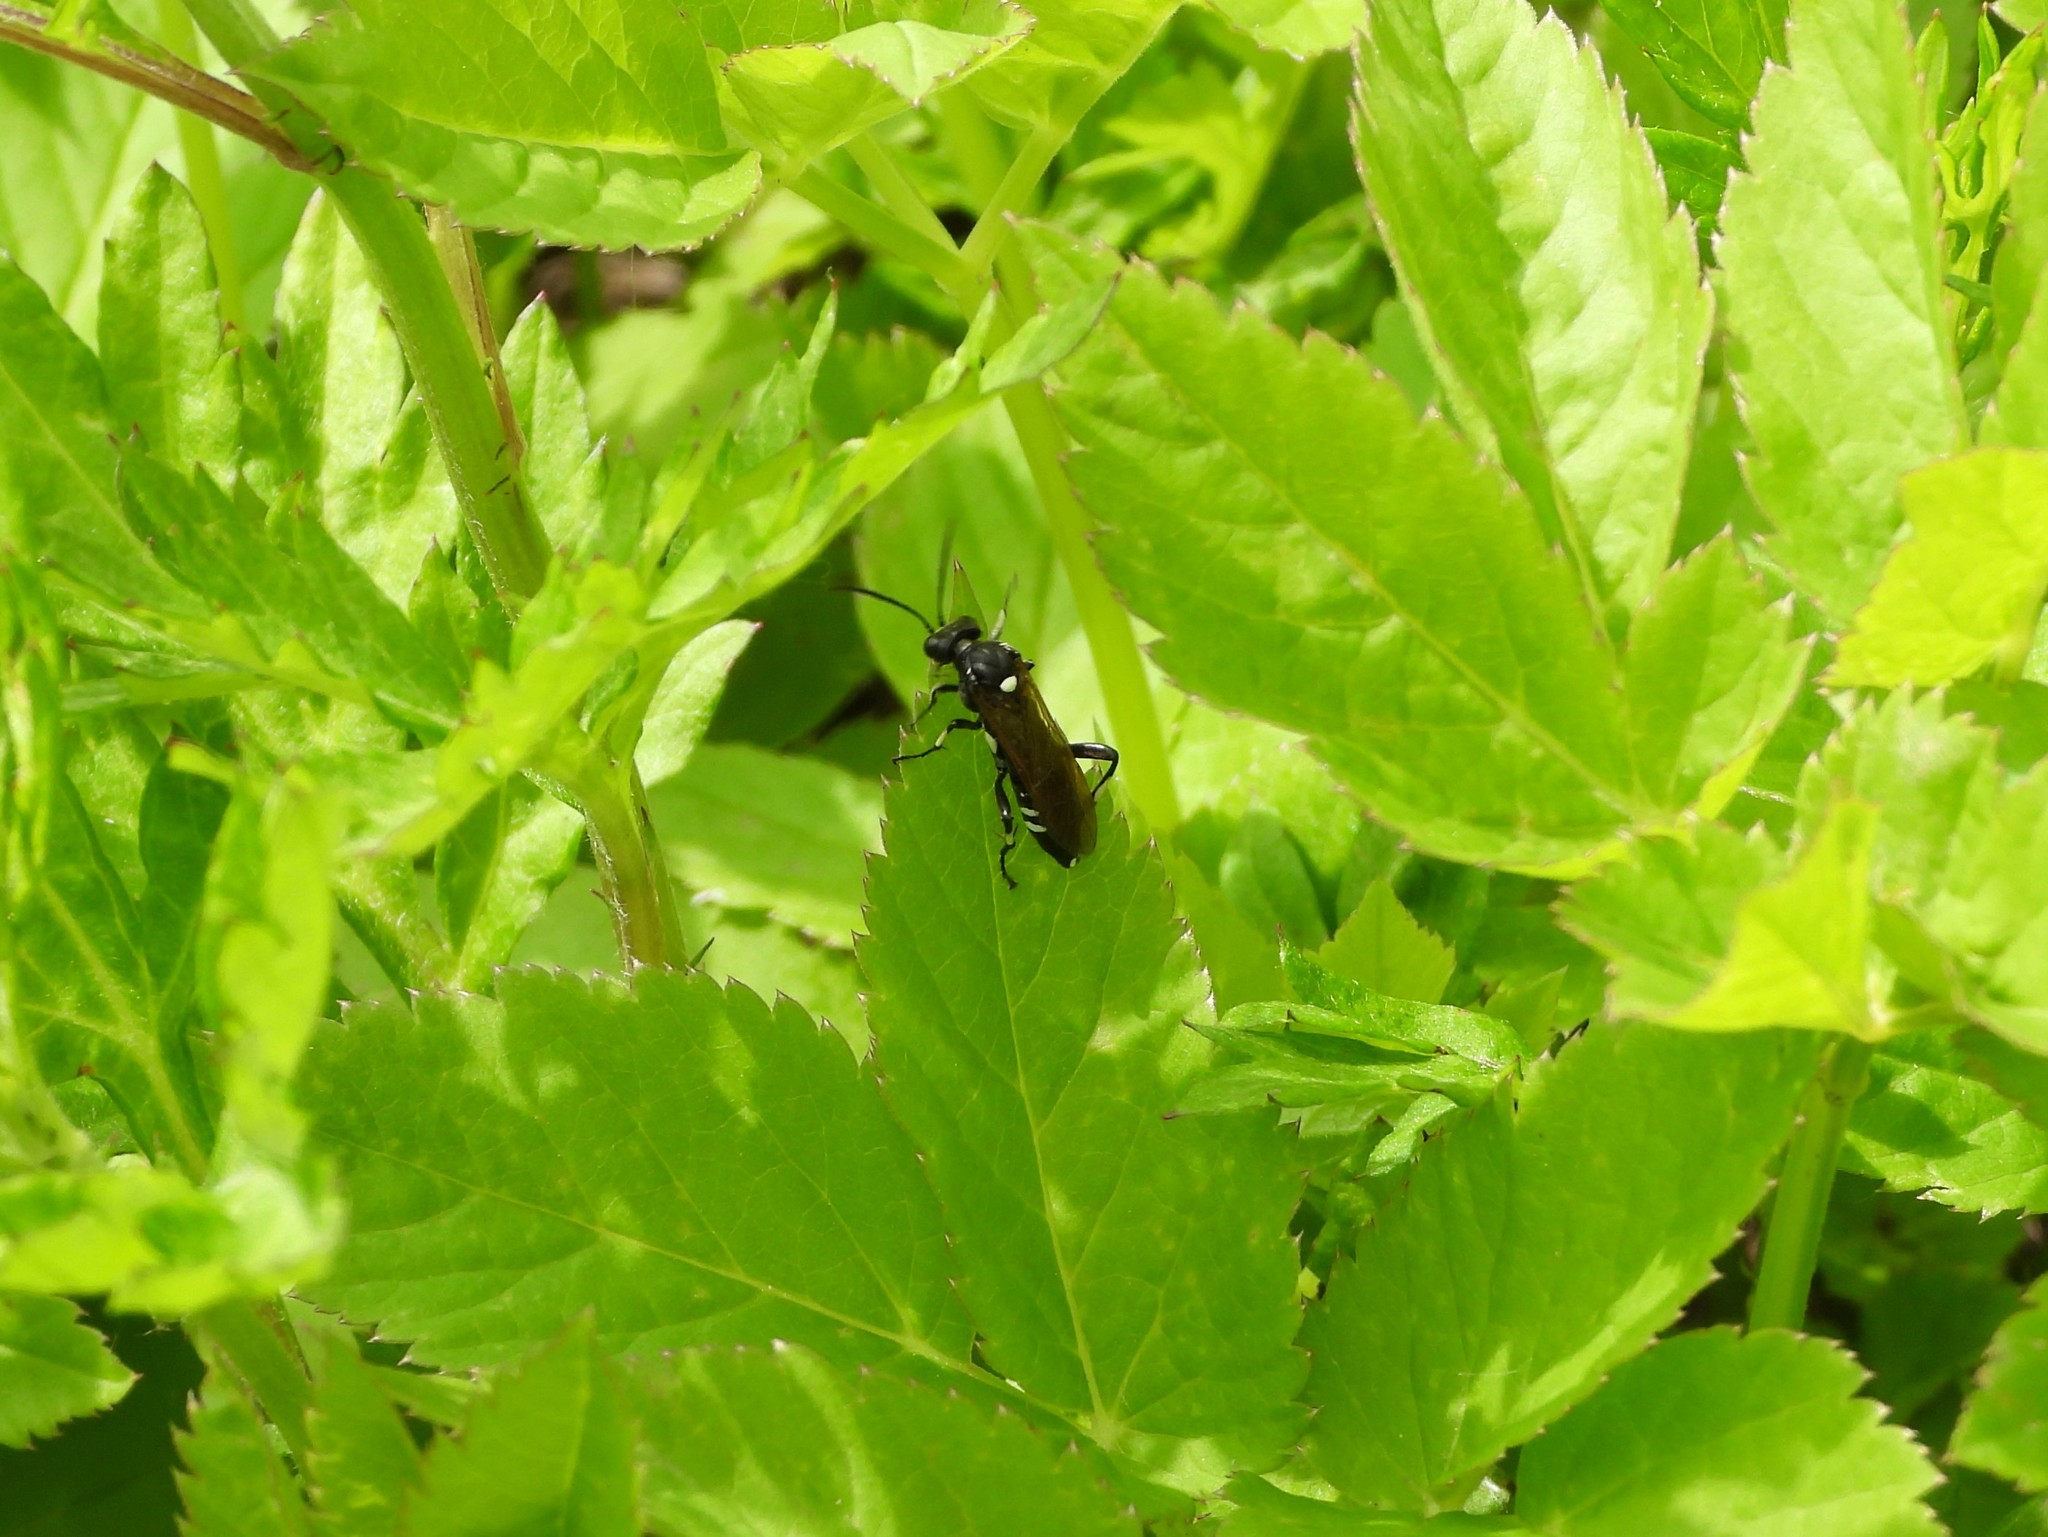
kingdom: Animalia
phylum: Arthropoda
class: Insecta
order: Hymenoptera
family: Tenthredinidae
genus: Macrophya
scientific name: Macrophya duodecimpunctata
